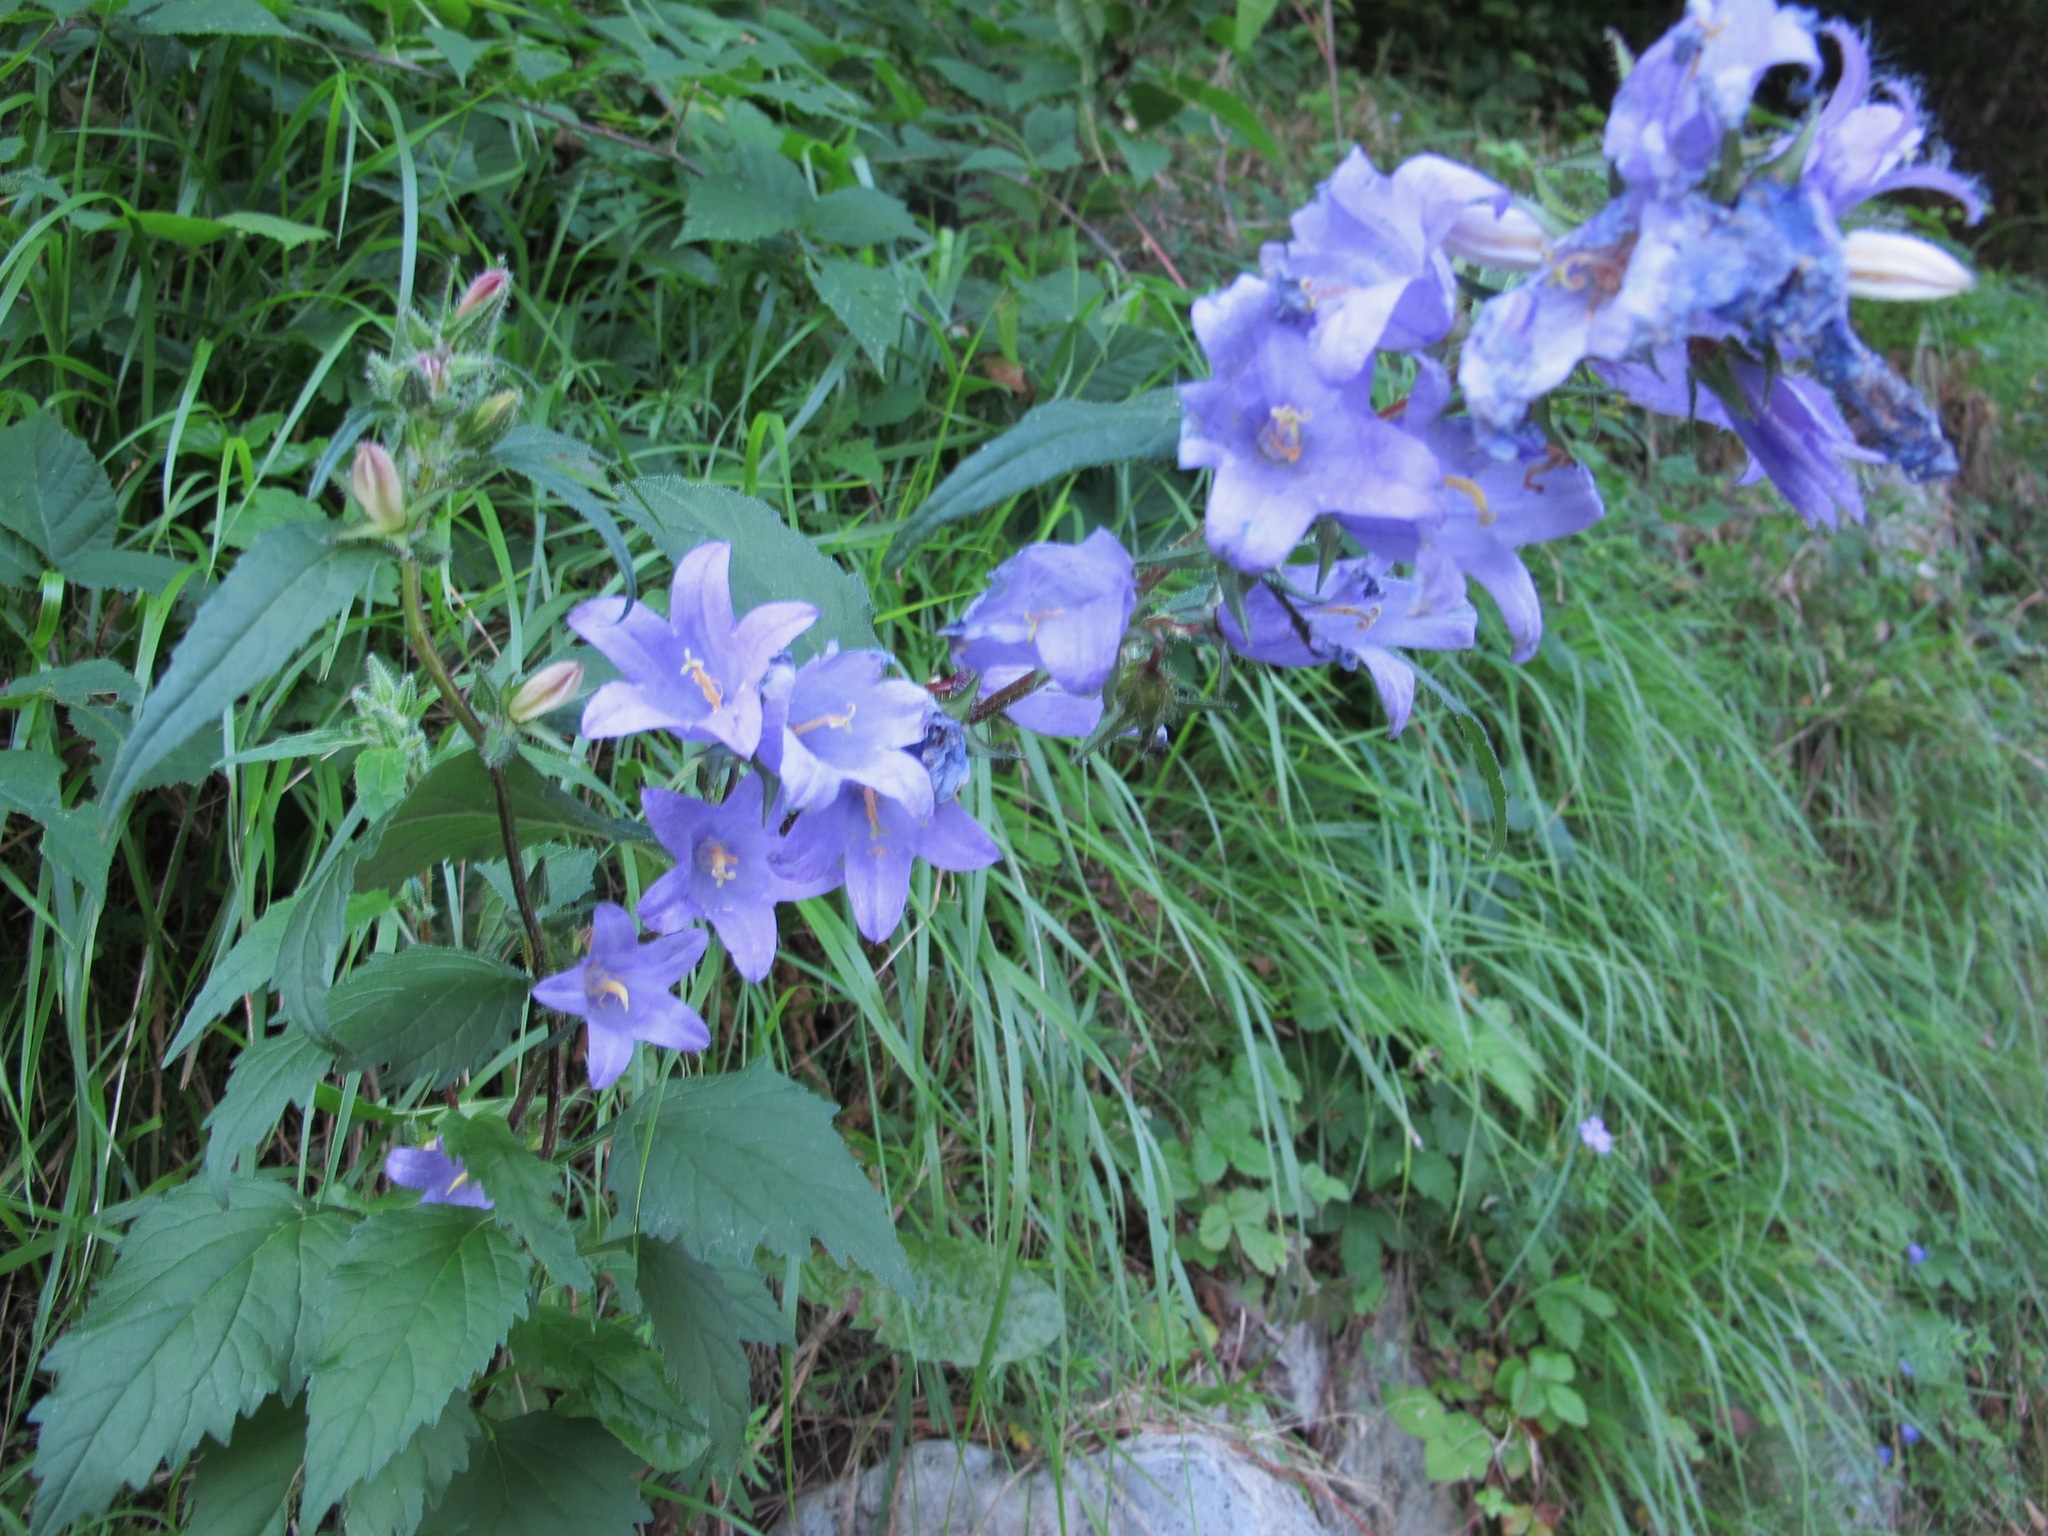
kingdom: Plantae
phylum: Tracheophyta
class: Magnoliopsida
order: Asterales
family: Campanulaceae
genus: Campanula
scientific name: Campanula trachelium
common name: Nettle-leaved bellflower
